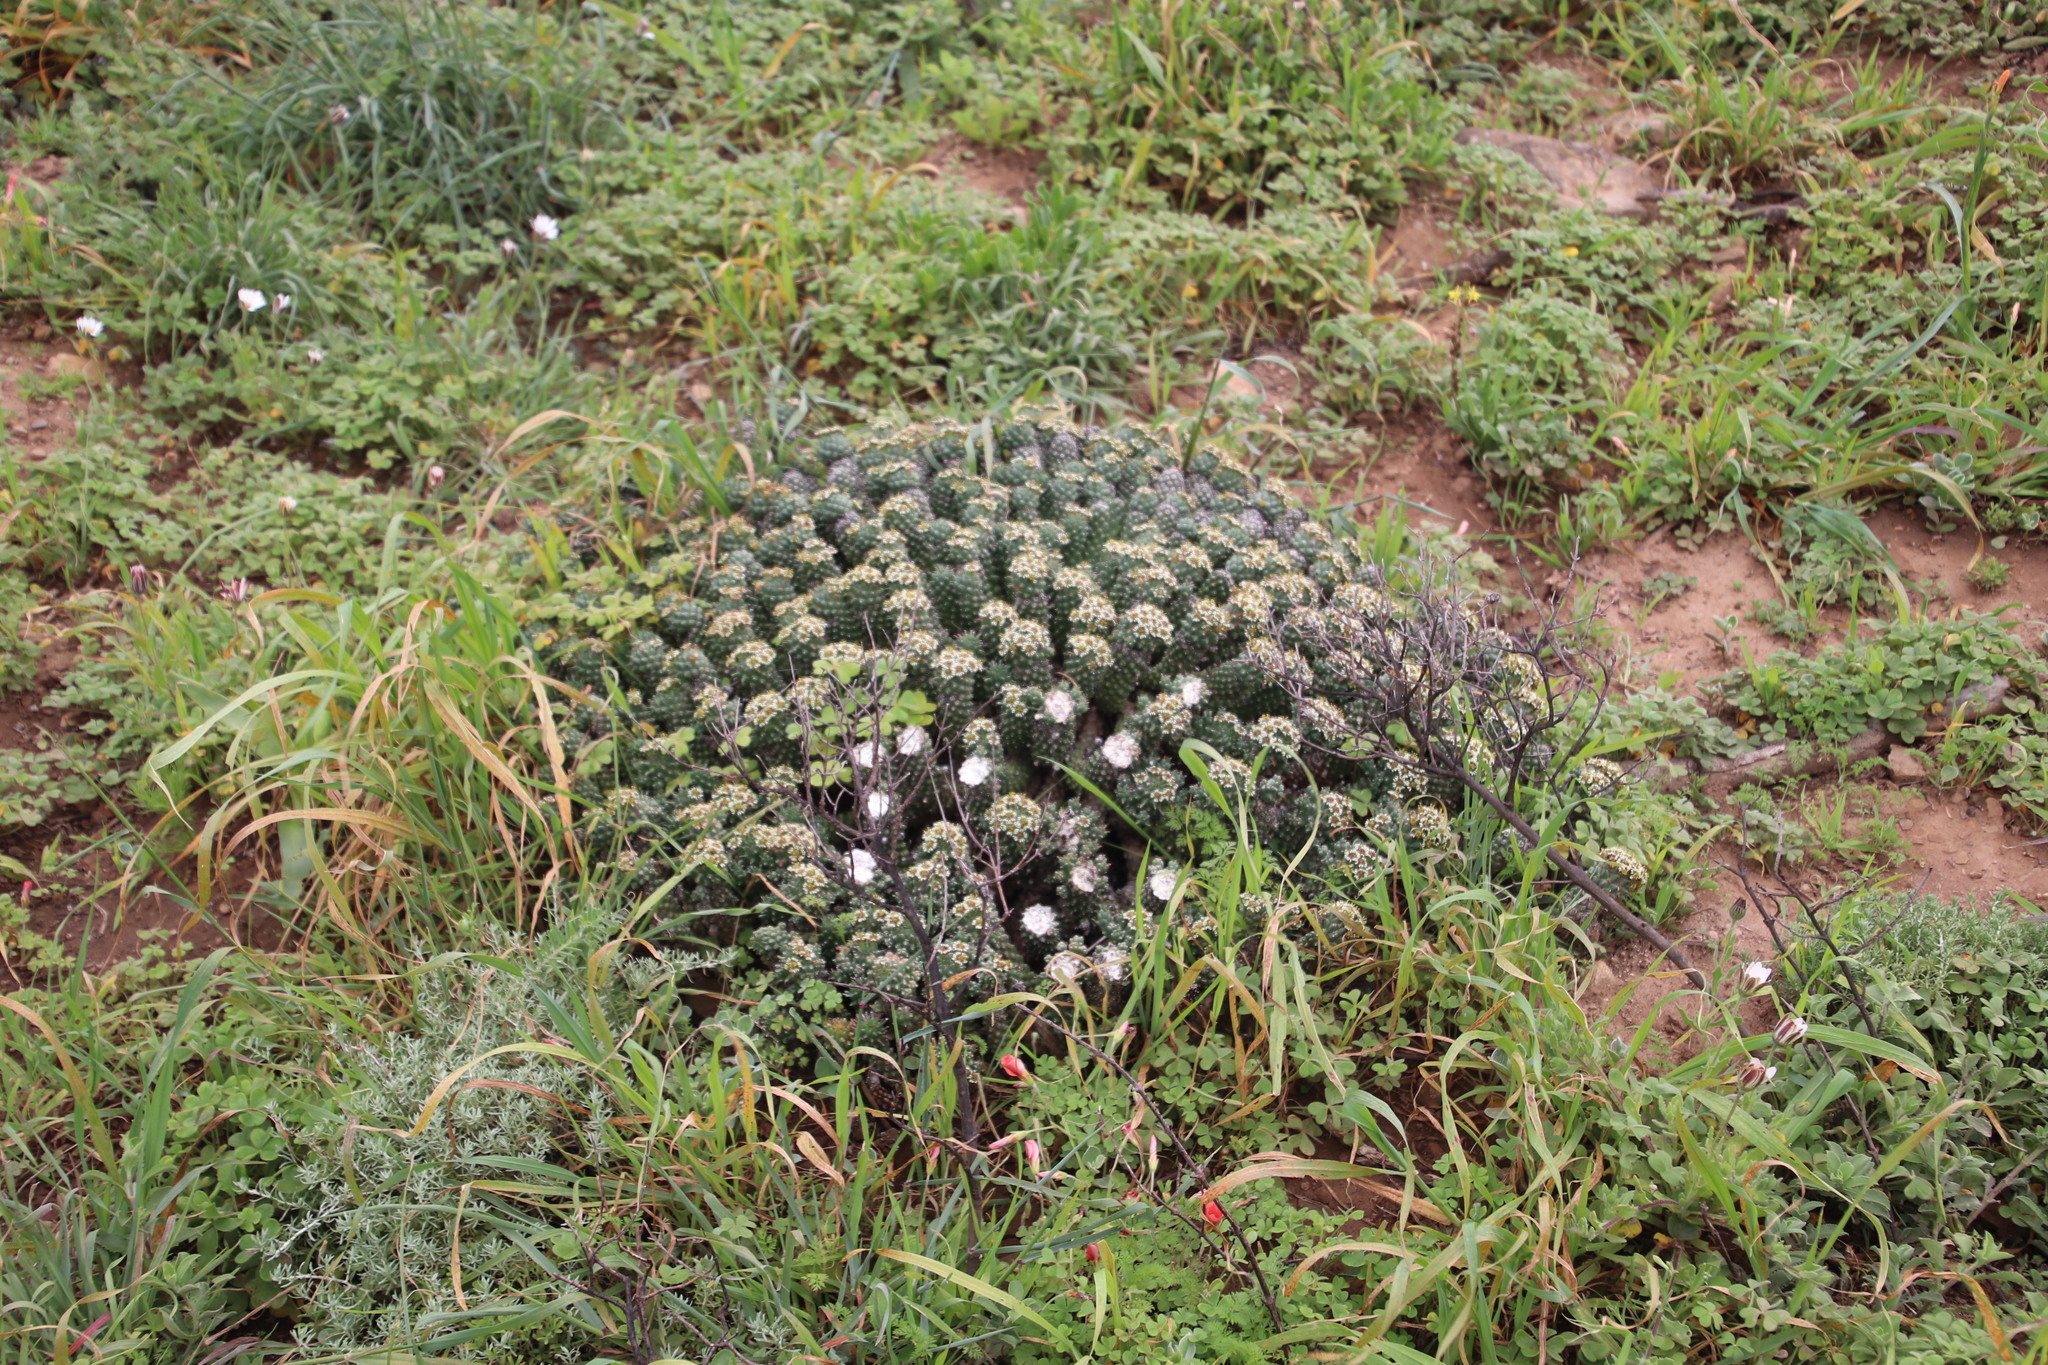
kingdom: Plantae
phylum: Tracheophyta
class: Magnoliopsida
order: Malpighiales
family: Euphorbiaceae
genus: Euphorbia
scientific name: Euphorbia caput-medusae
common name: Medusa's-head
